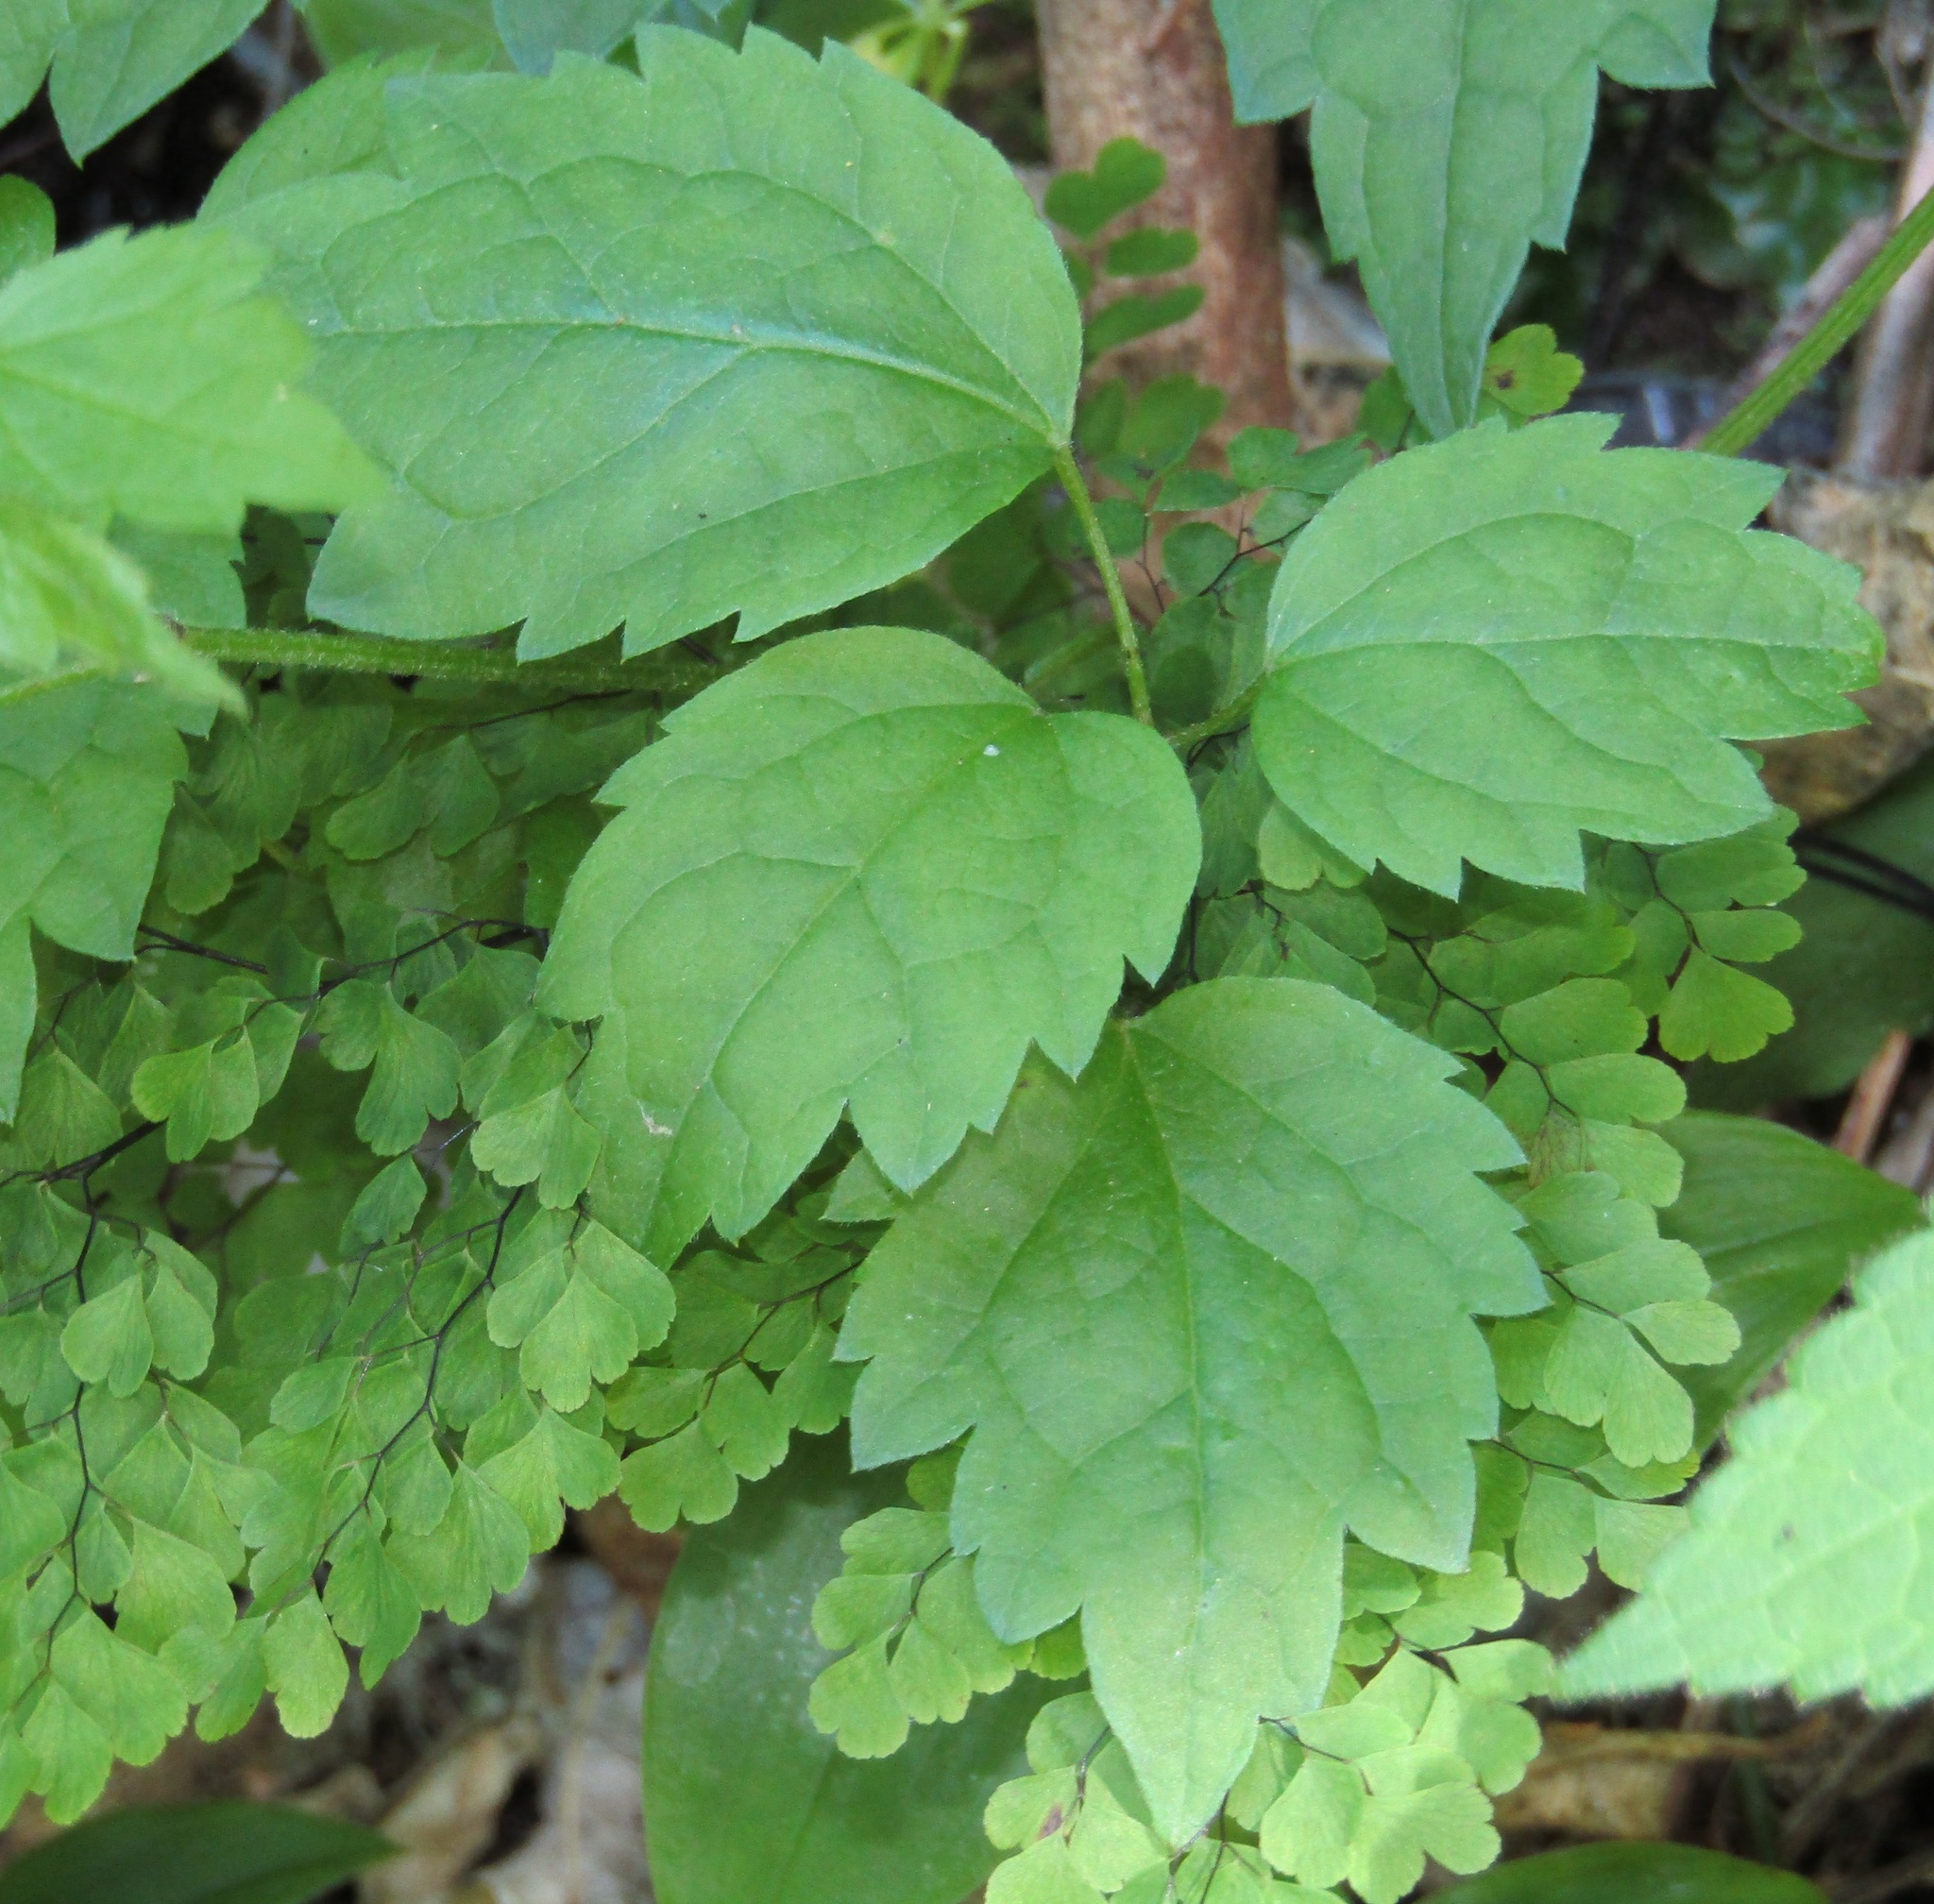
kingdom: Plantae
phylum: Tracheophyta
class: Magnoliopsida
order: Ranunculales
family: Ranunculaceae
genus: Clematis
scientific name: Clematis vitalba
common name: Evergreen clematis
